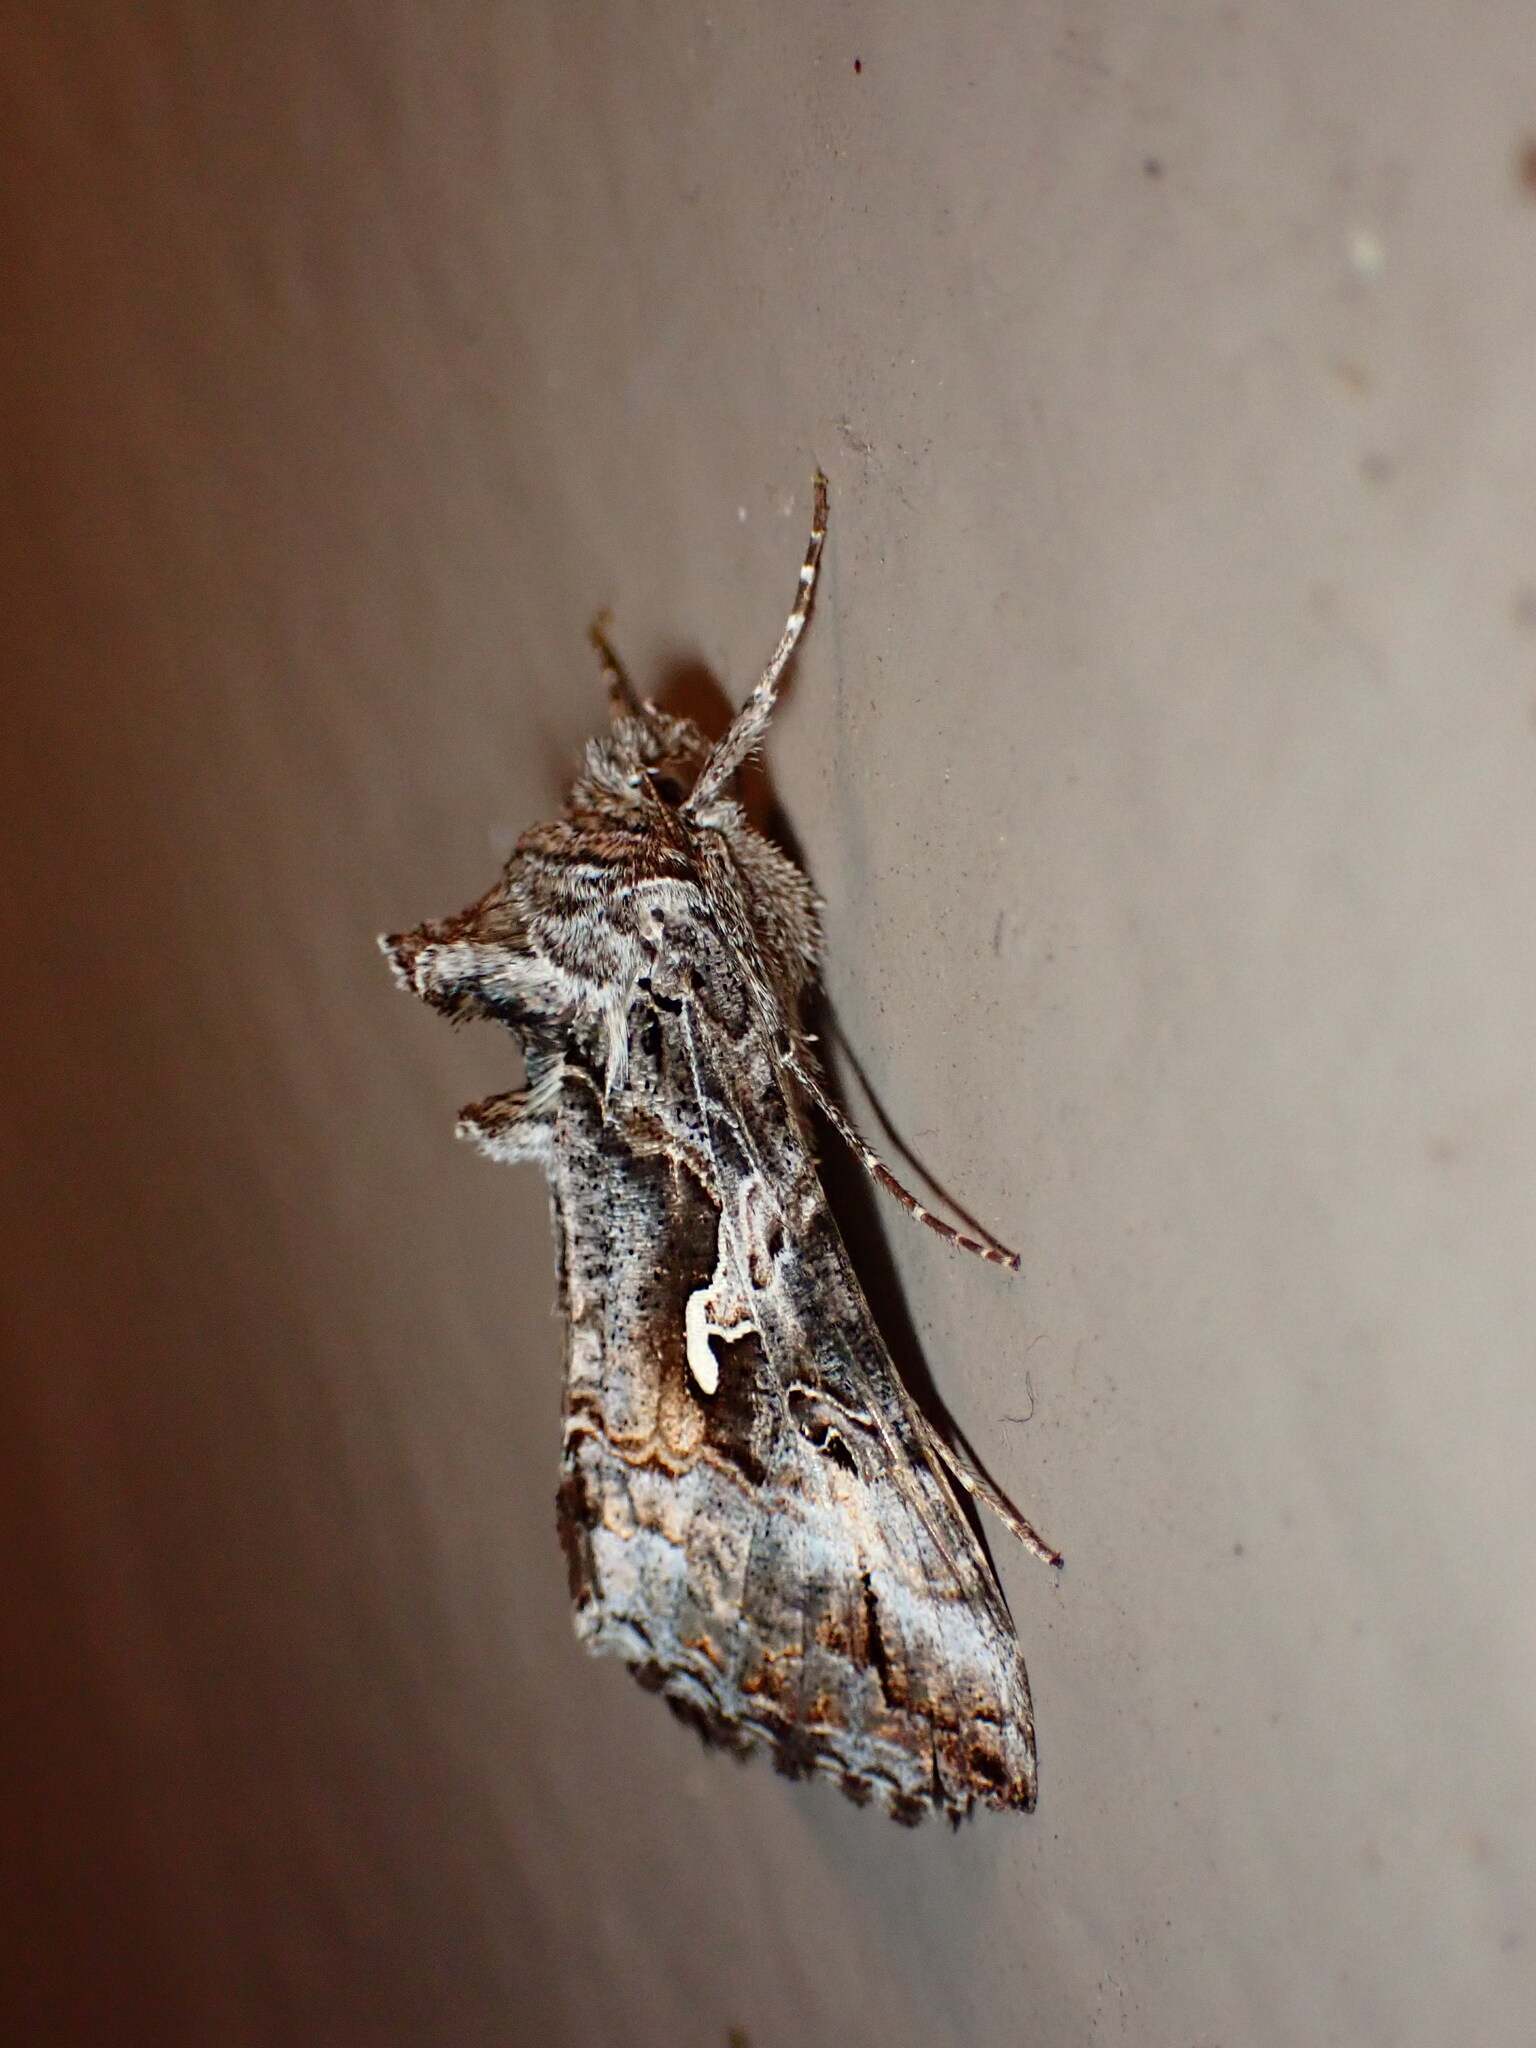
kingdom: Animalia
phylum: Arthropoda
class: Insecta
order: Lepidoptera
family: Noctuidae
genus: Autographa
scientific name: Autographa californica
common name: Alfalfa looper
